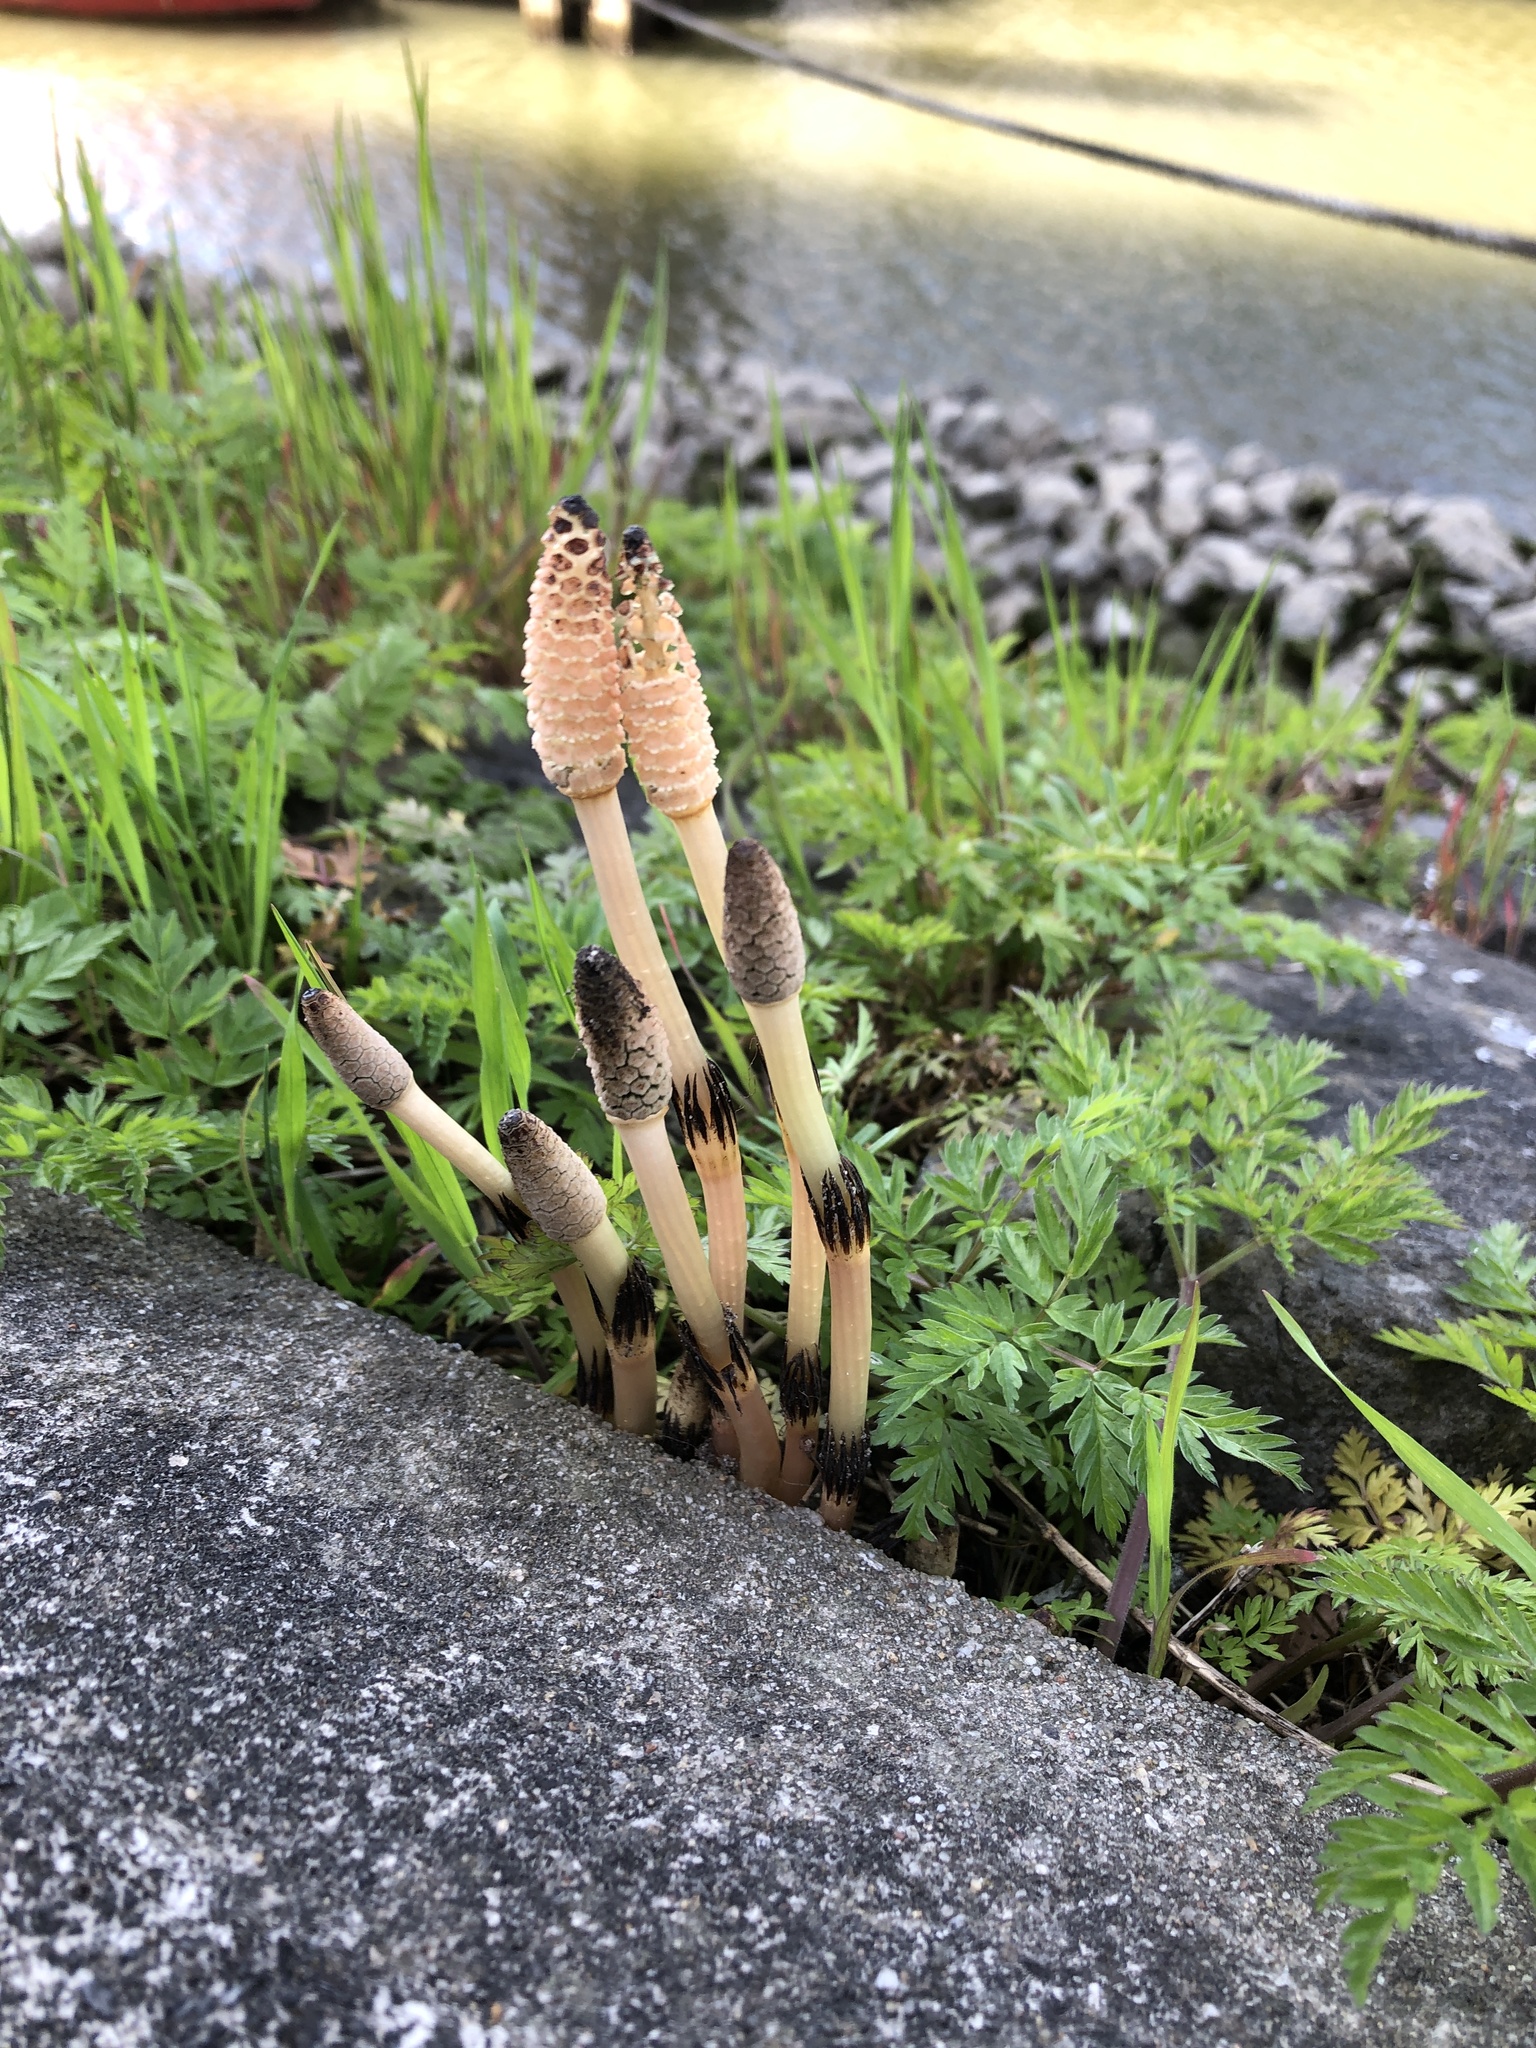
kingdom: Plantae
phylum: Tracheophyta
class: Polypodiopsida
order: Equisetales
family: Equisetaceae
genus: Equisetum
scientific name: Equisetum arvense
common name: Field horsetail
